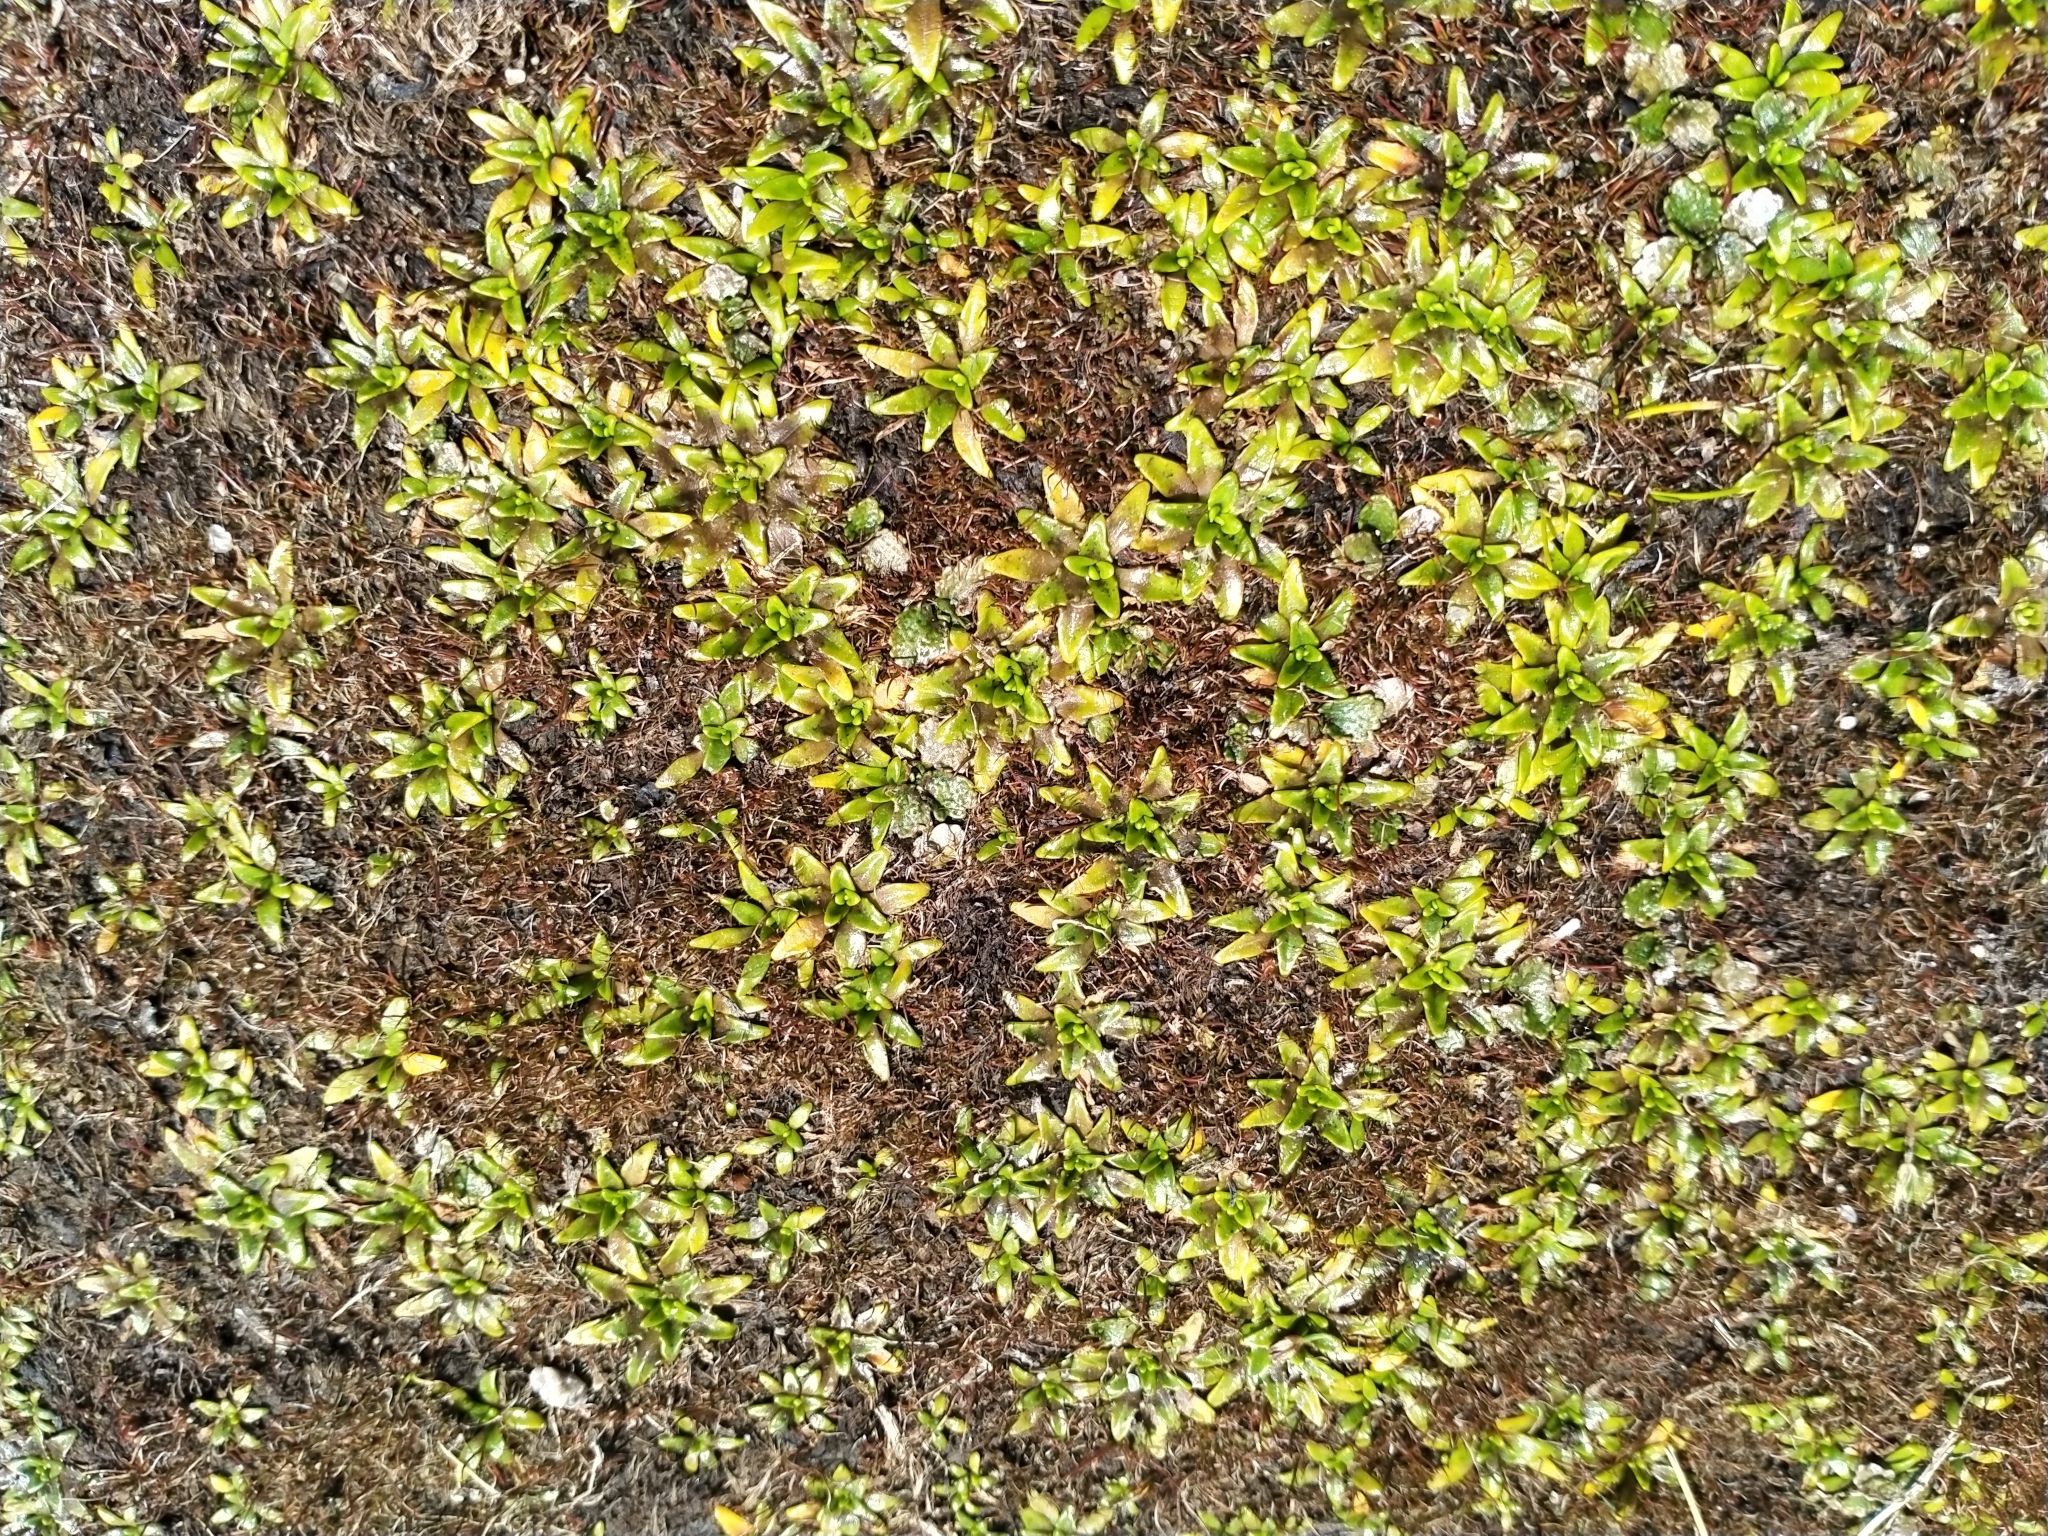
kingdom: Plantae
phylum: Tracheophyta
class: Magnoliopsida
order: Lamiales
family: Plantaginaceae
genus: Plantago
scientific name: Plantago triandra
